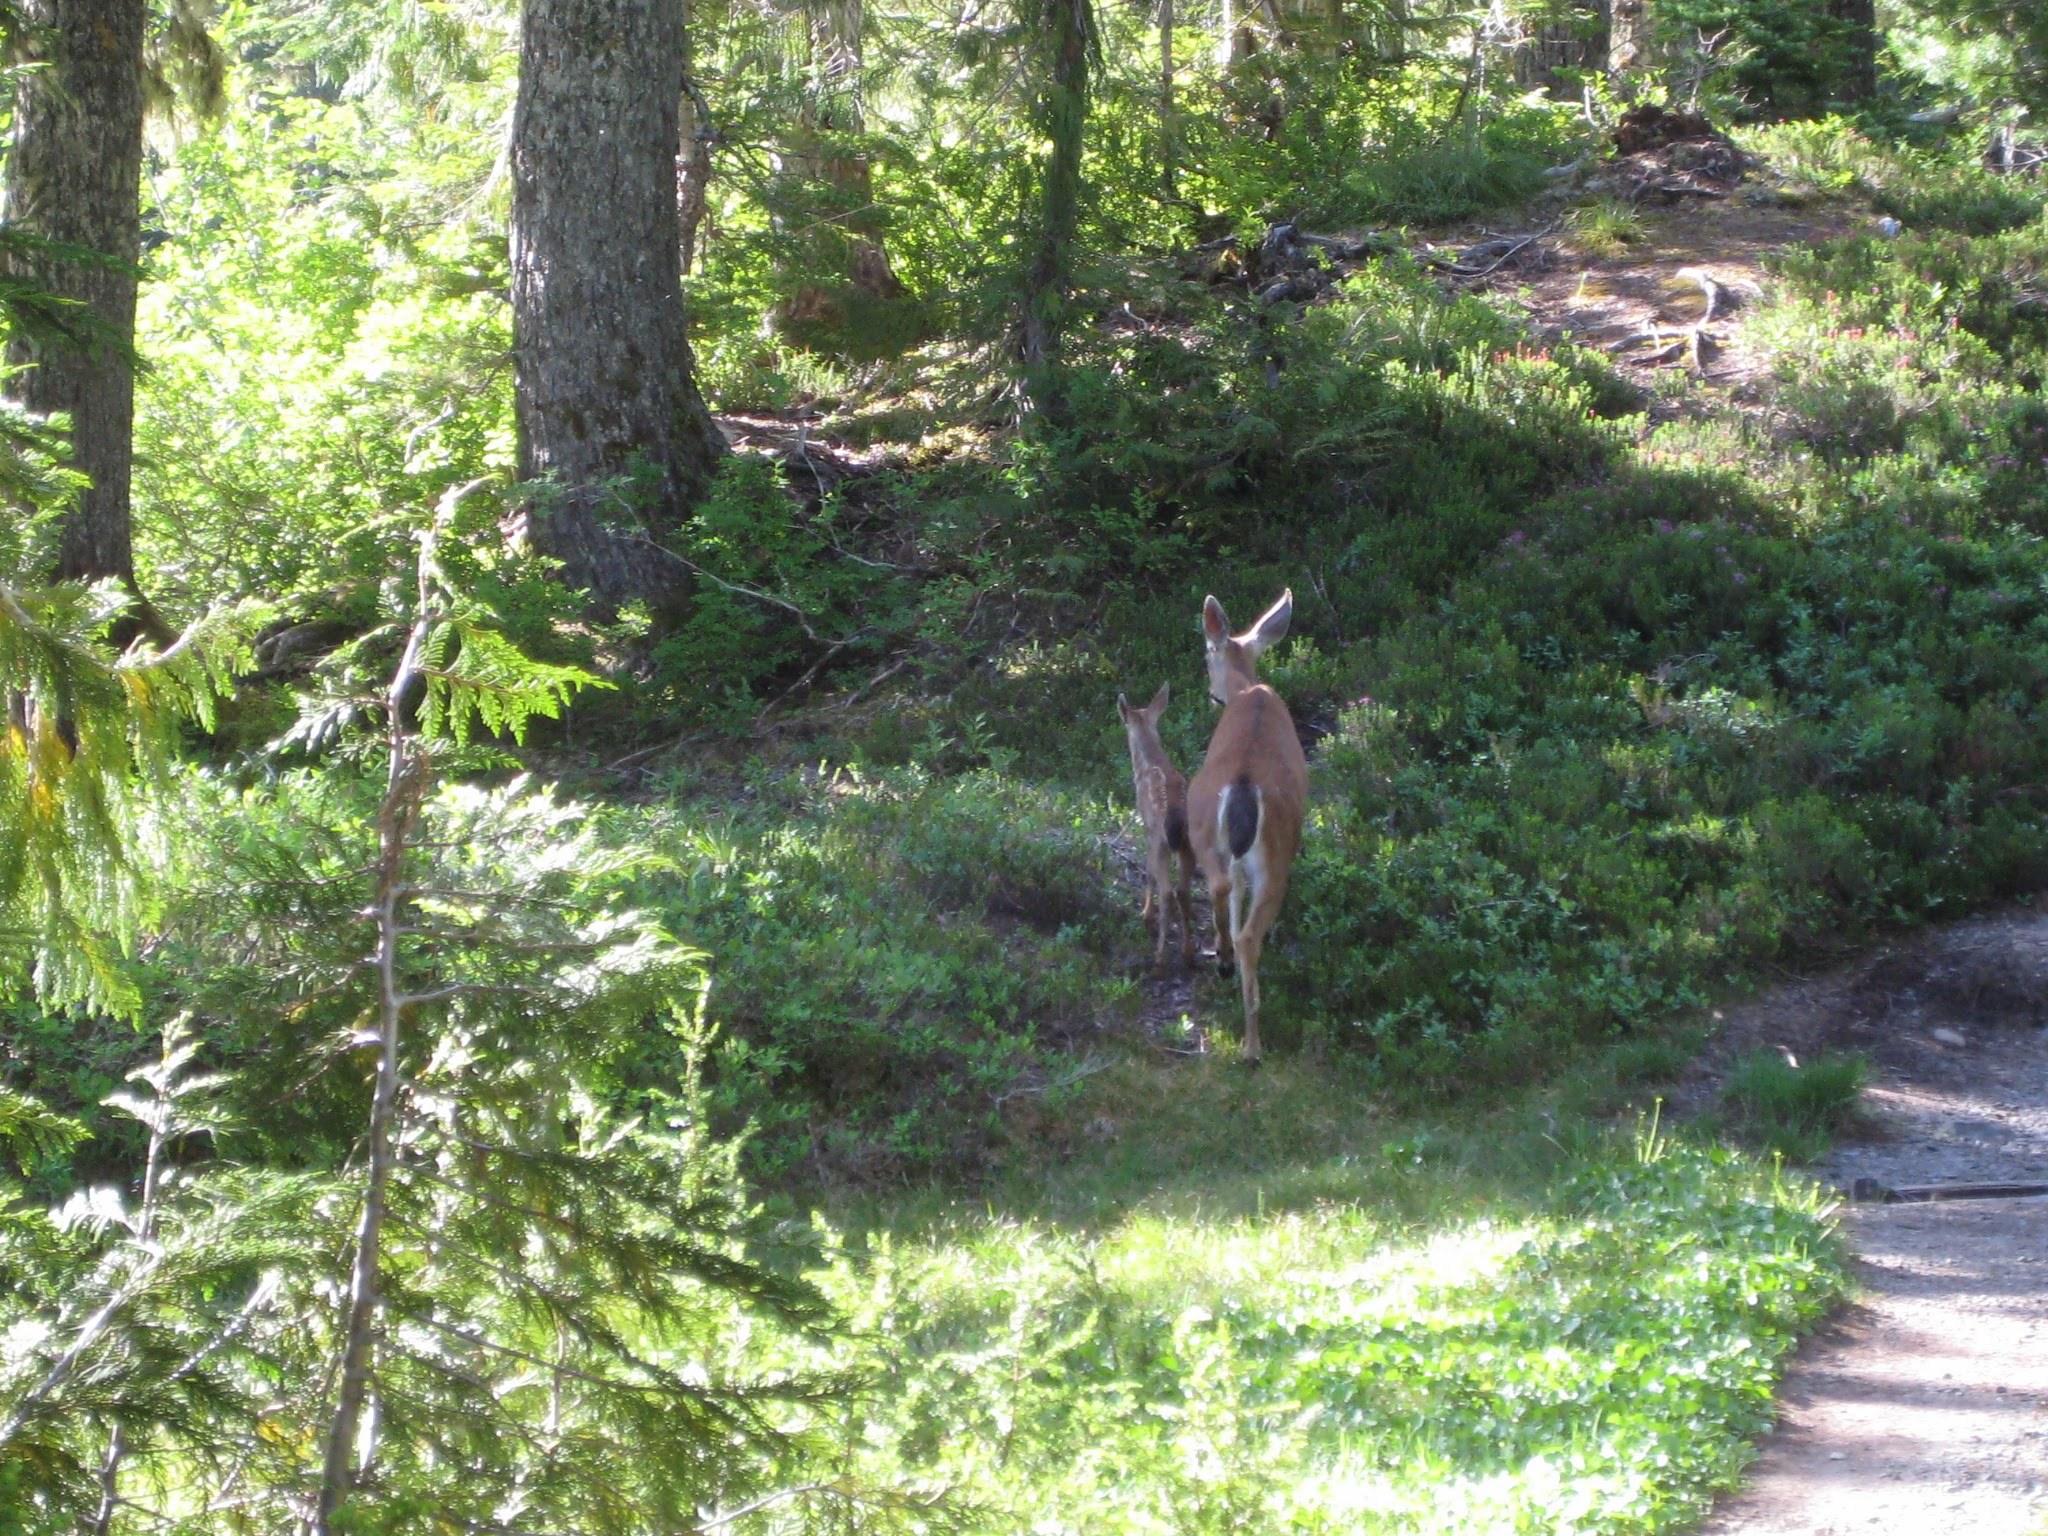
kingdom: Animalia
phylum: Chordata
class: Mammalia
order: Artiodactyla
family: Cervidae
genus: Odocoileus
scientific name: Odocoileus hemionus
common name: Mule deer
